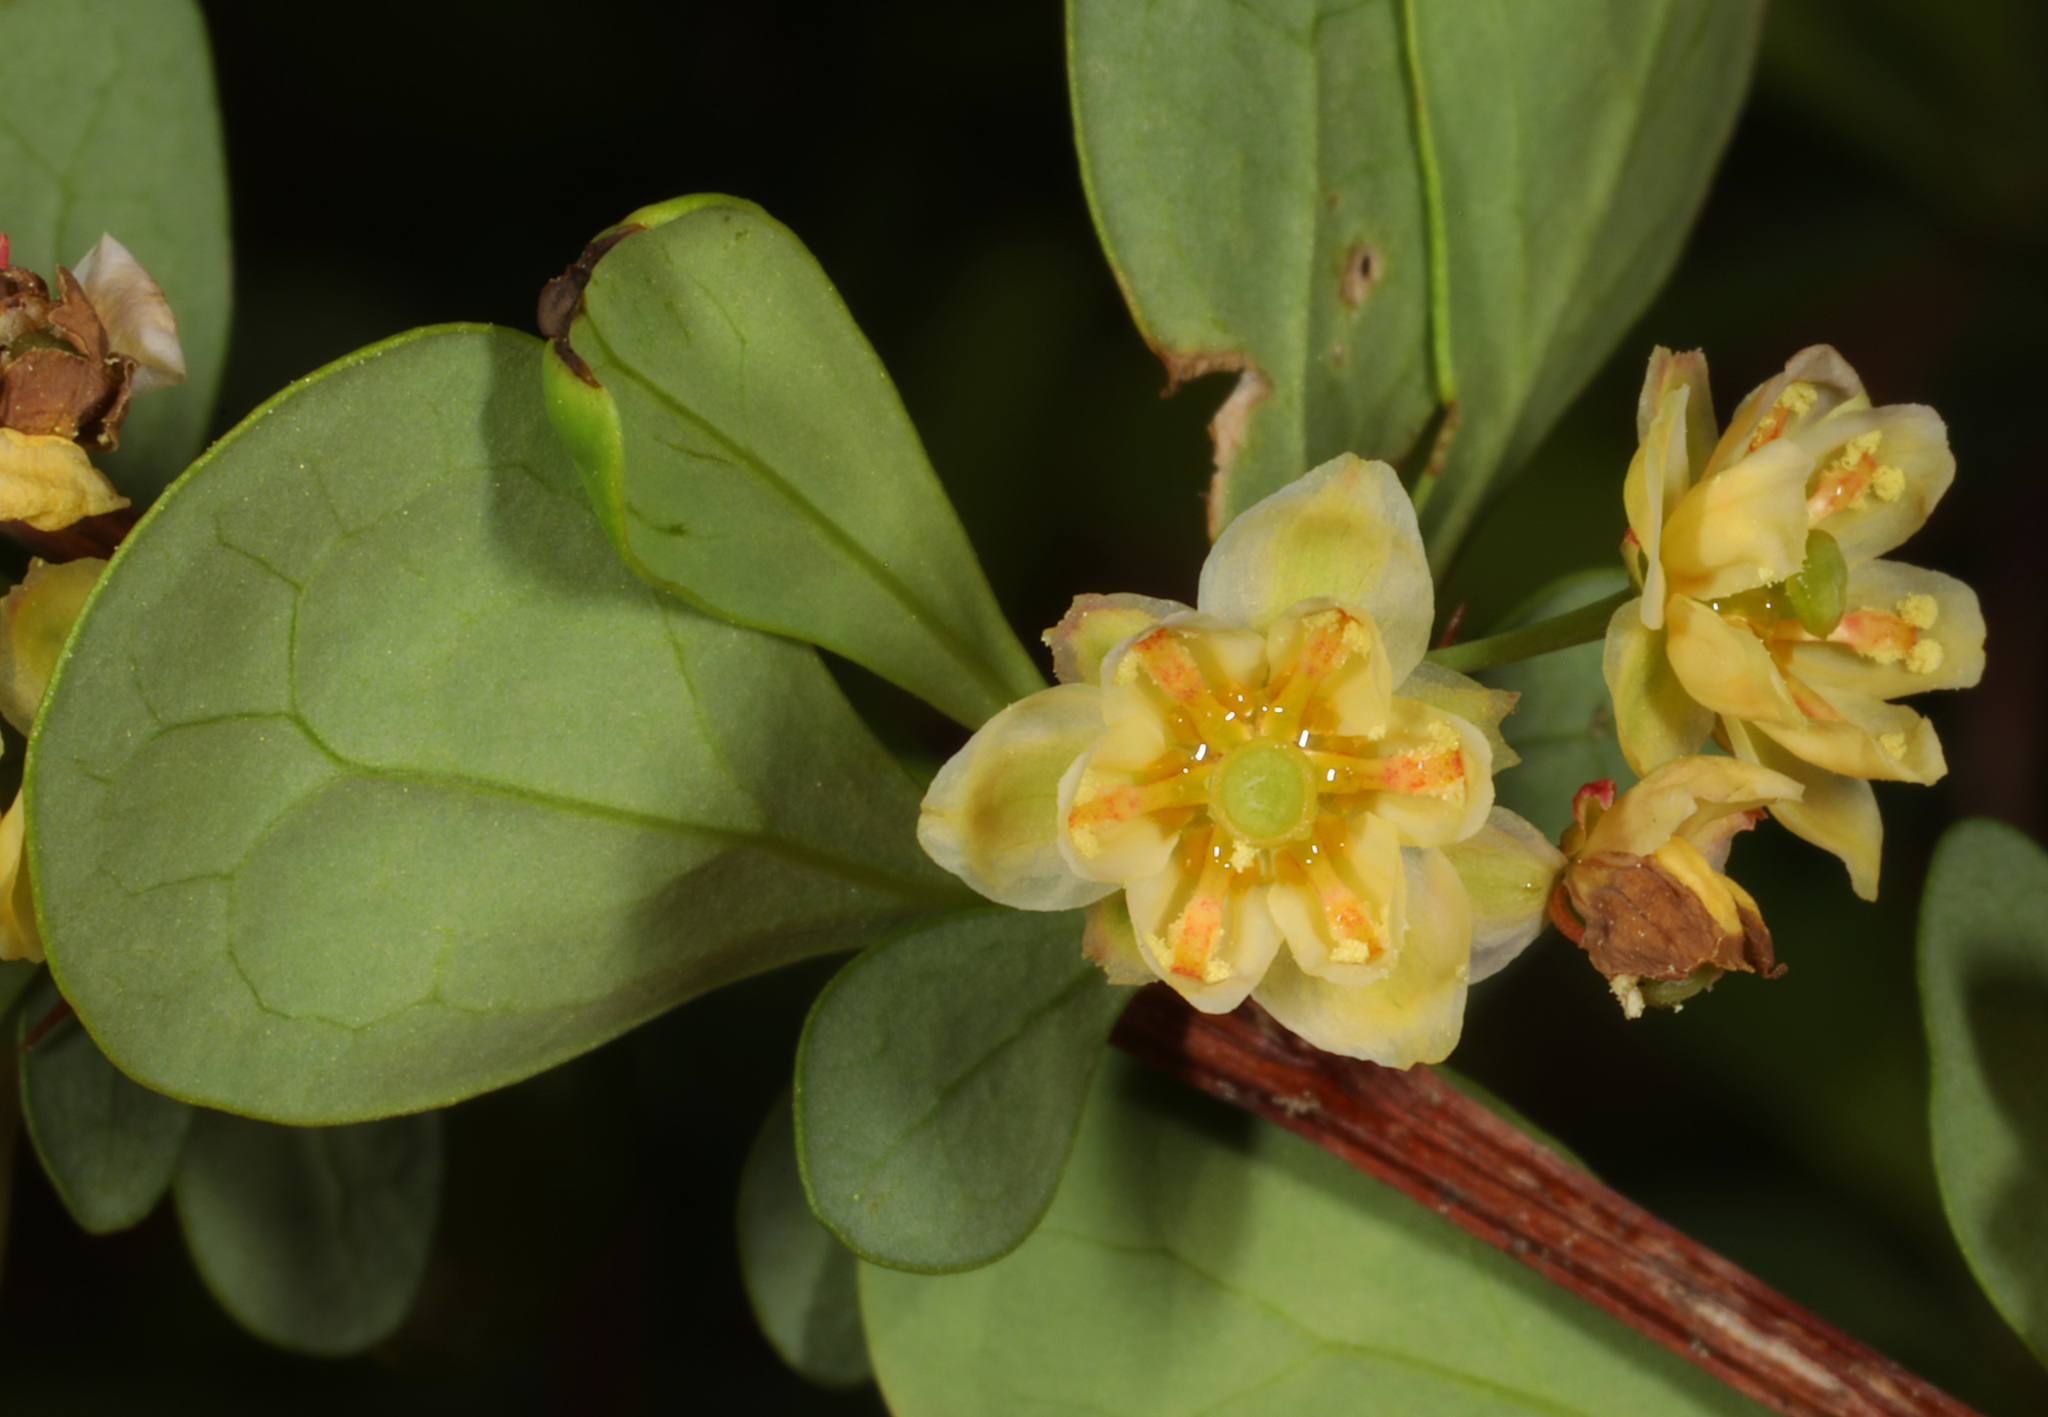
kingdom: Plantae
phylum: Tracheophyta
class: Magnoliopsida
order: Ranunculales
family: Berberidaceae
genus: Berberis
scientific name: Berberis thunbergii
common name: Japanese barberry
